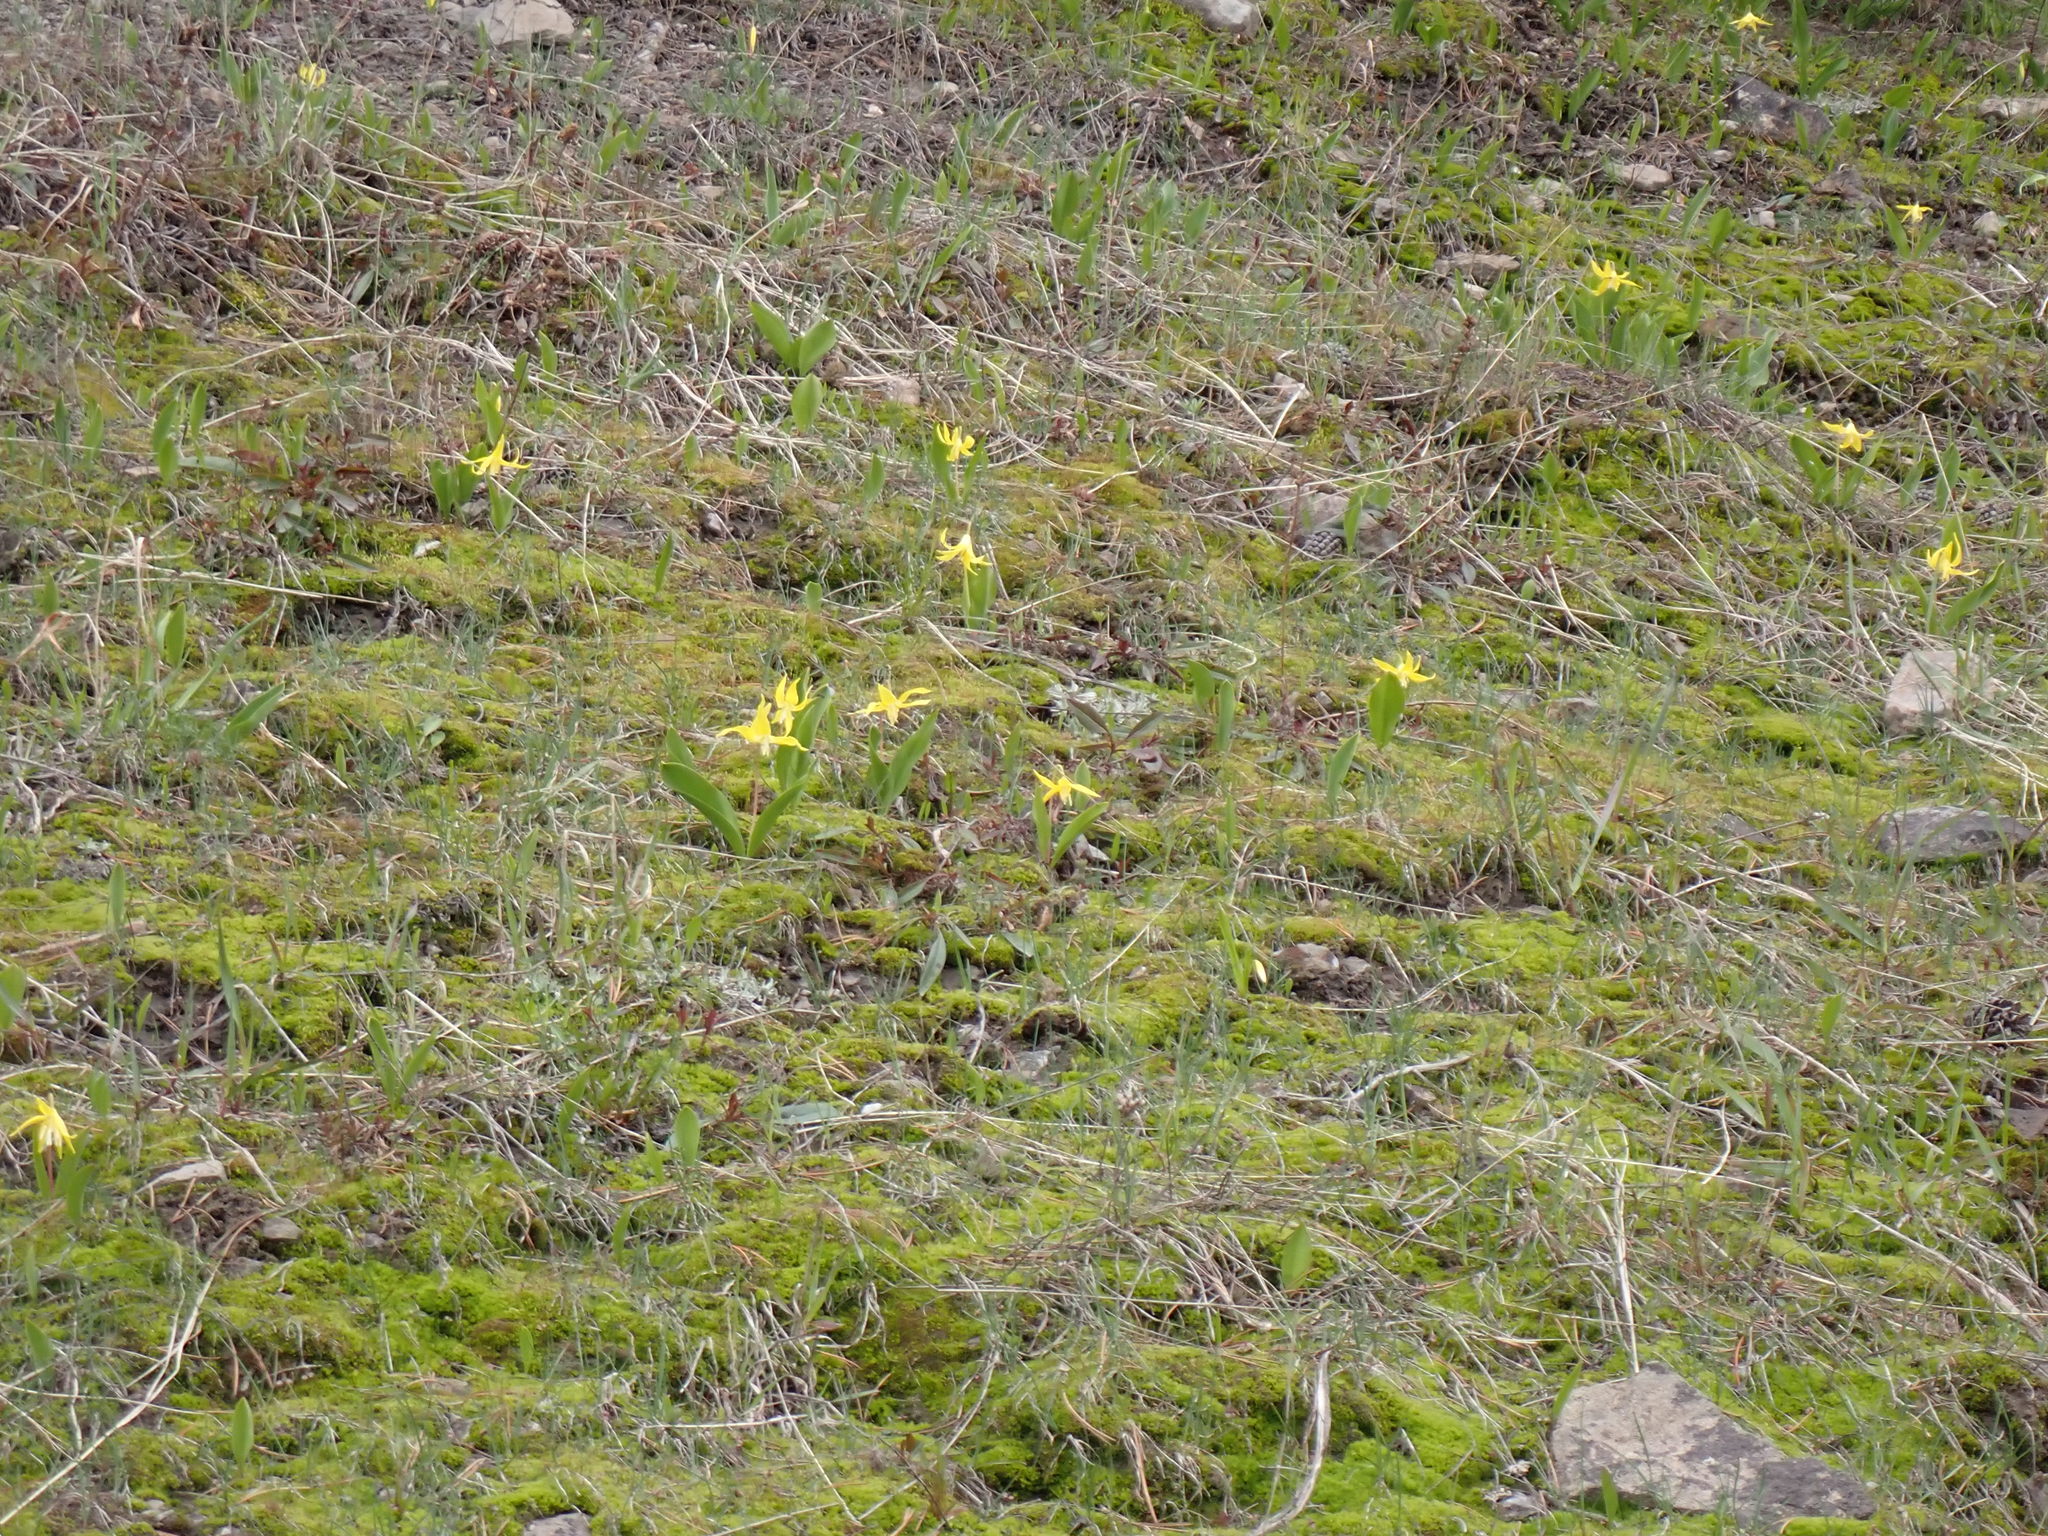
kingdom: Plantae
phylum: Tracheophyta
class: Liliopsida
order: Liliales
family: Liliaceae
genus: Erythronium
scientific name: Erythronium grandiflorum
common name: Avalanche-lily
